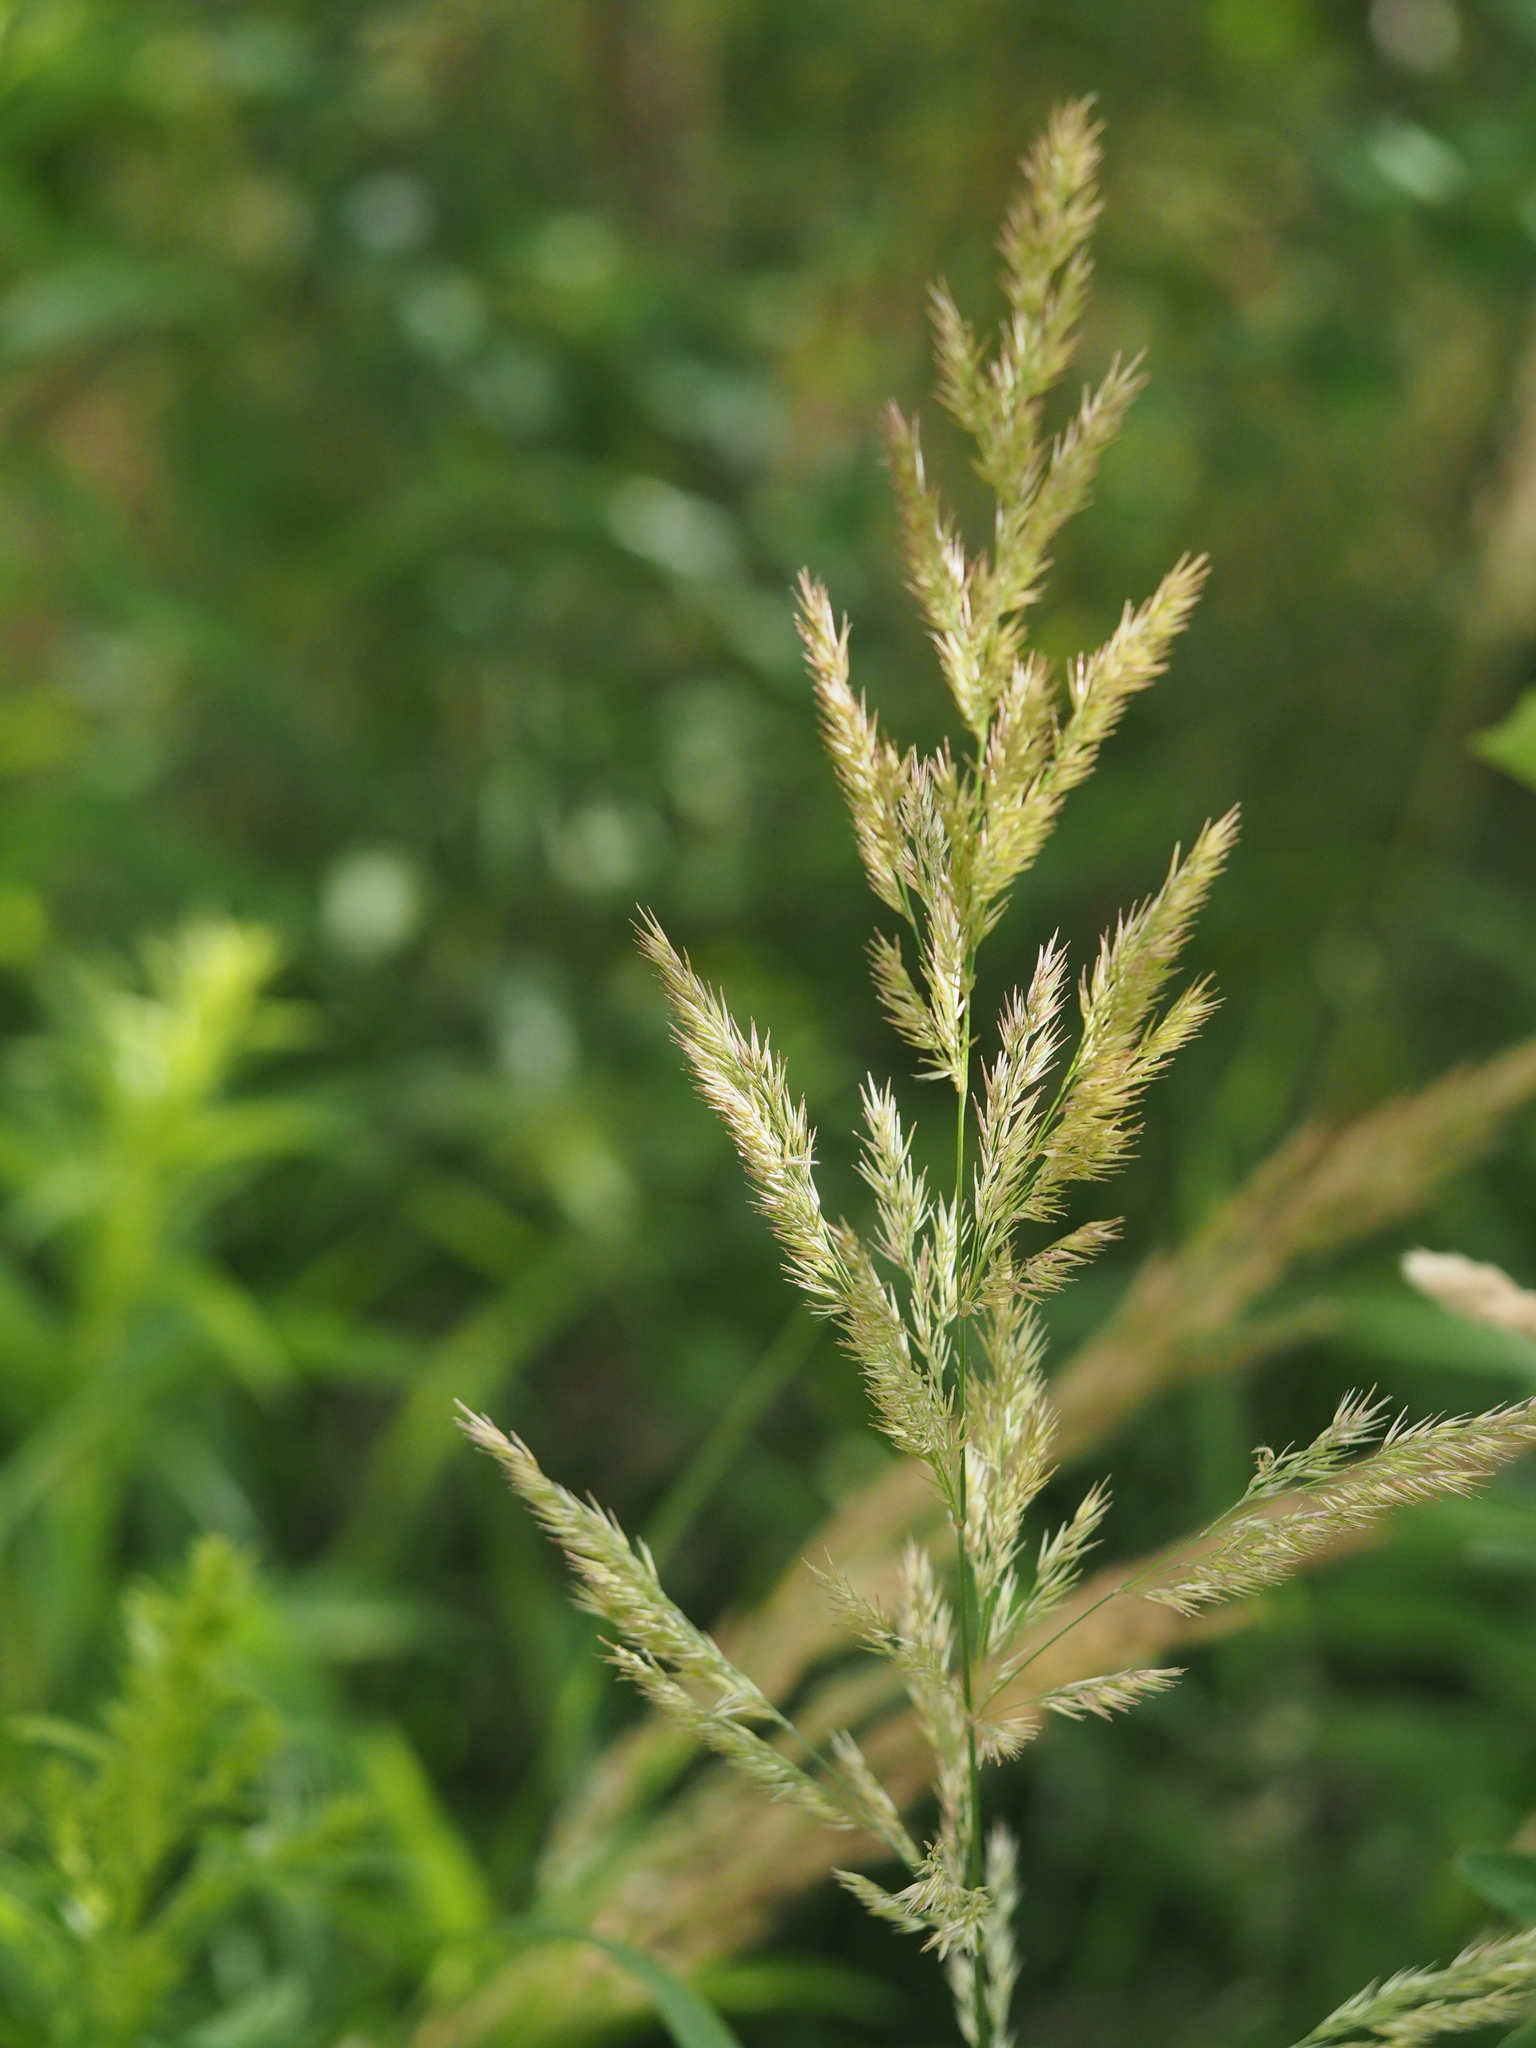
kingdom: Plantae
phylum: Tracheophyta
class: Liliopsida
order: Poales
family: Poaceae
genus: Calamagrostis
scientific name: Calamagrostis epigejos
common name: Wood small-reed
